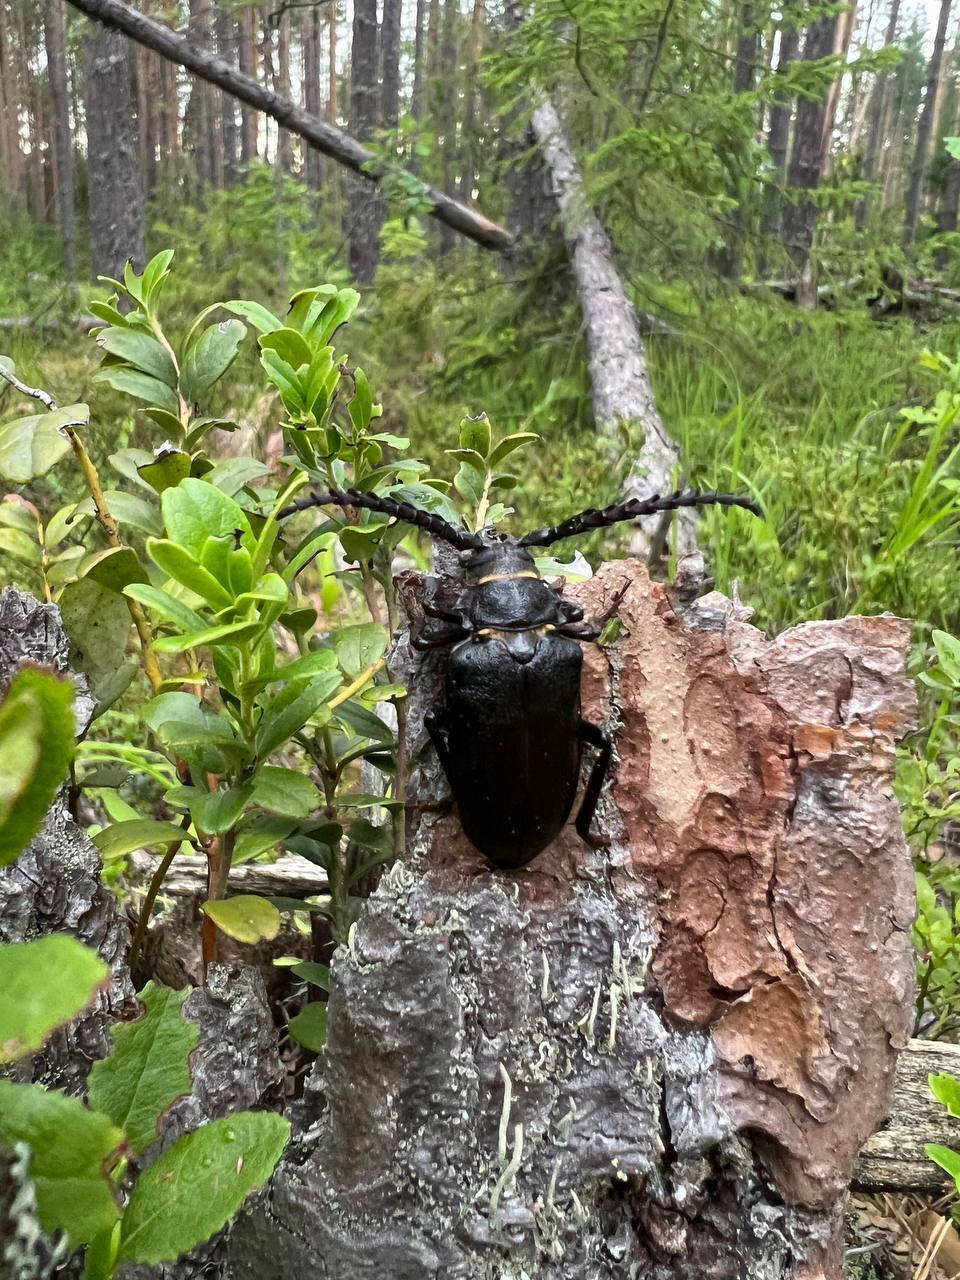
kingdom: Animalia
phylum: Arthropoda
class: Insecta
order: Coleoptera
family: Cerambycidae
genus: Prionus
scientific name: Prionus coriarius
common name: Tanner beetle
